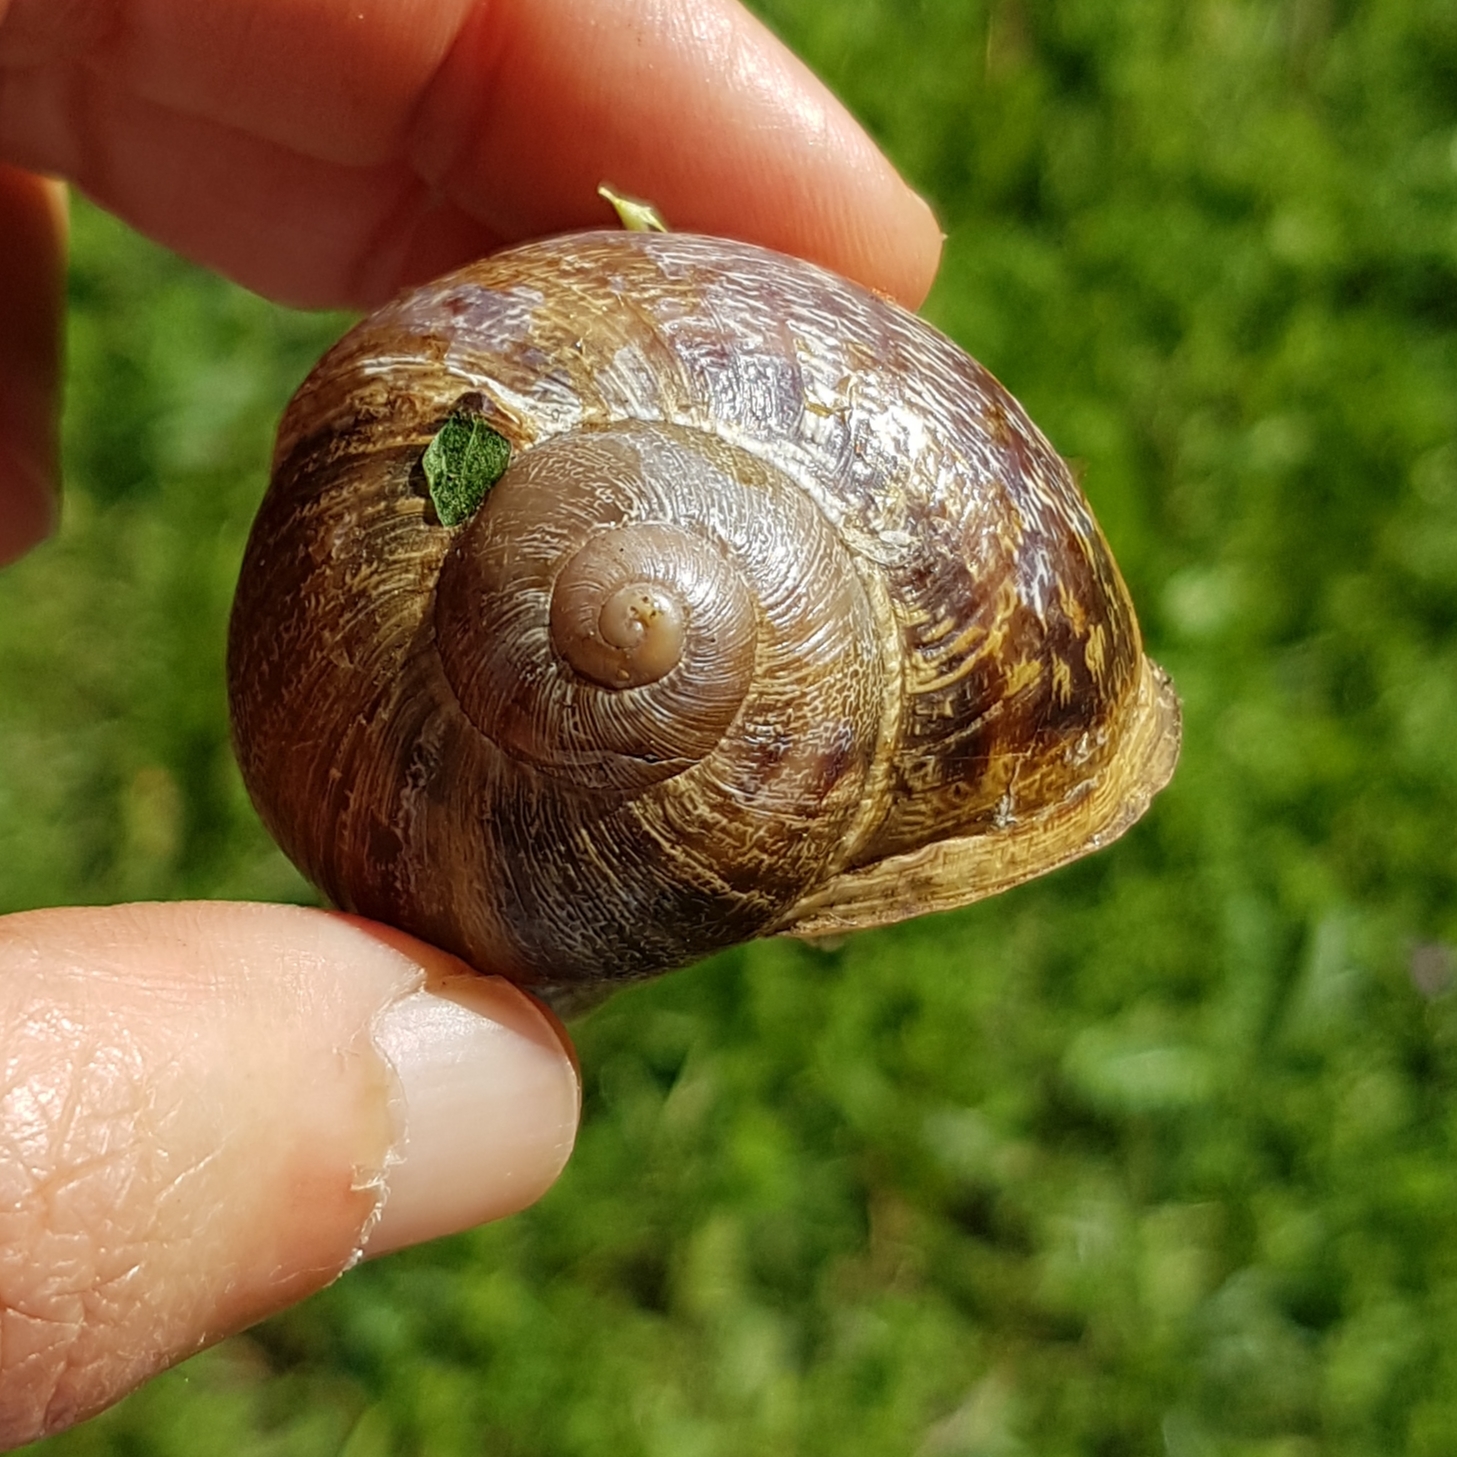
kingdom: Animalia
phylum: Mollusca
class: Gastropoda
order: Stylommatophora
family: Helicidae
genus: Cornu
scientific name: Cornu aspersum
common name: Brown garden snail
